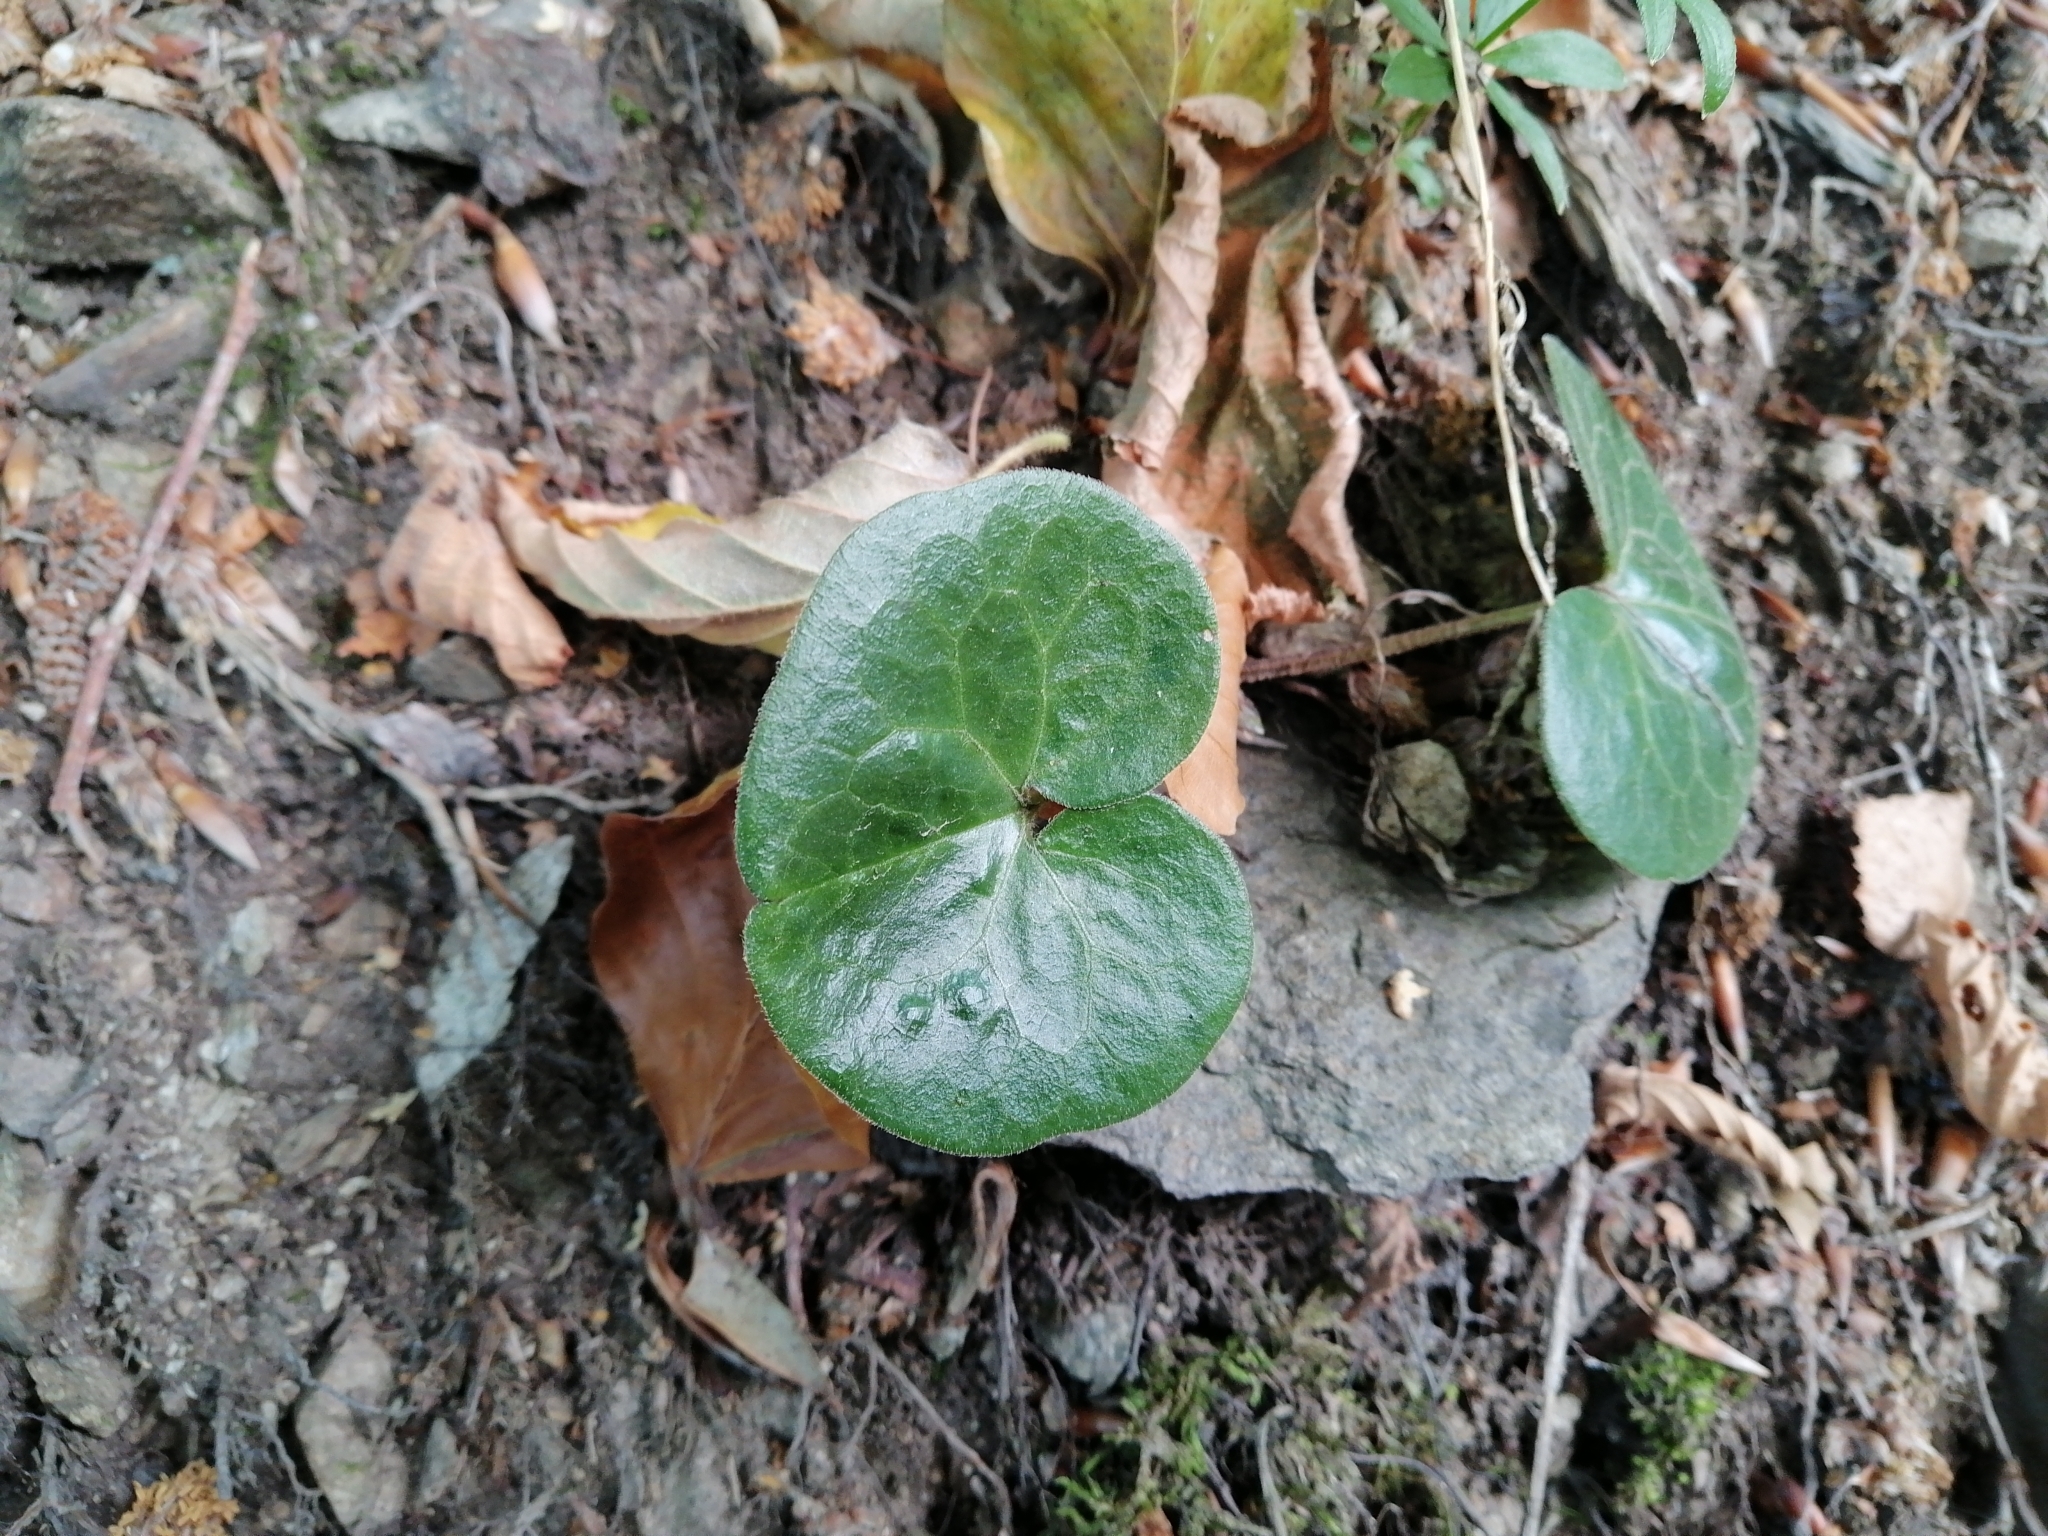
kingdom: Plantae
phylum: Tracheophyta
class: Magnoliopsida
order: Piperales
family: Aristolochiaceae
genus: Asarum
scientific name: Asarum europaeum
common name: Asarabacca
